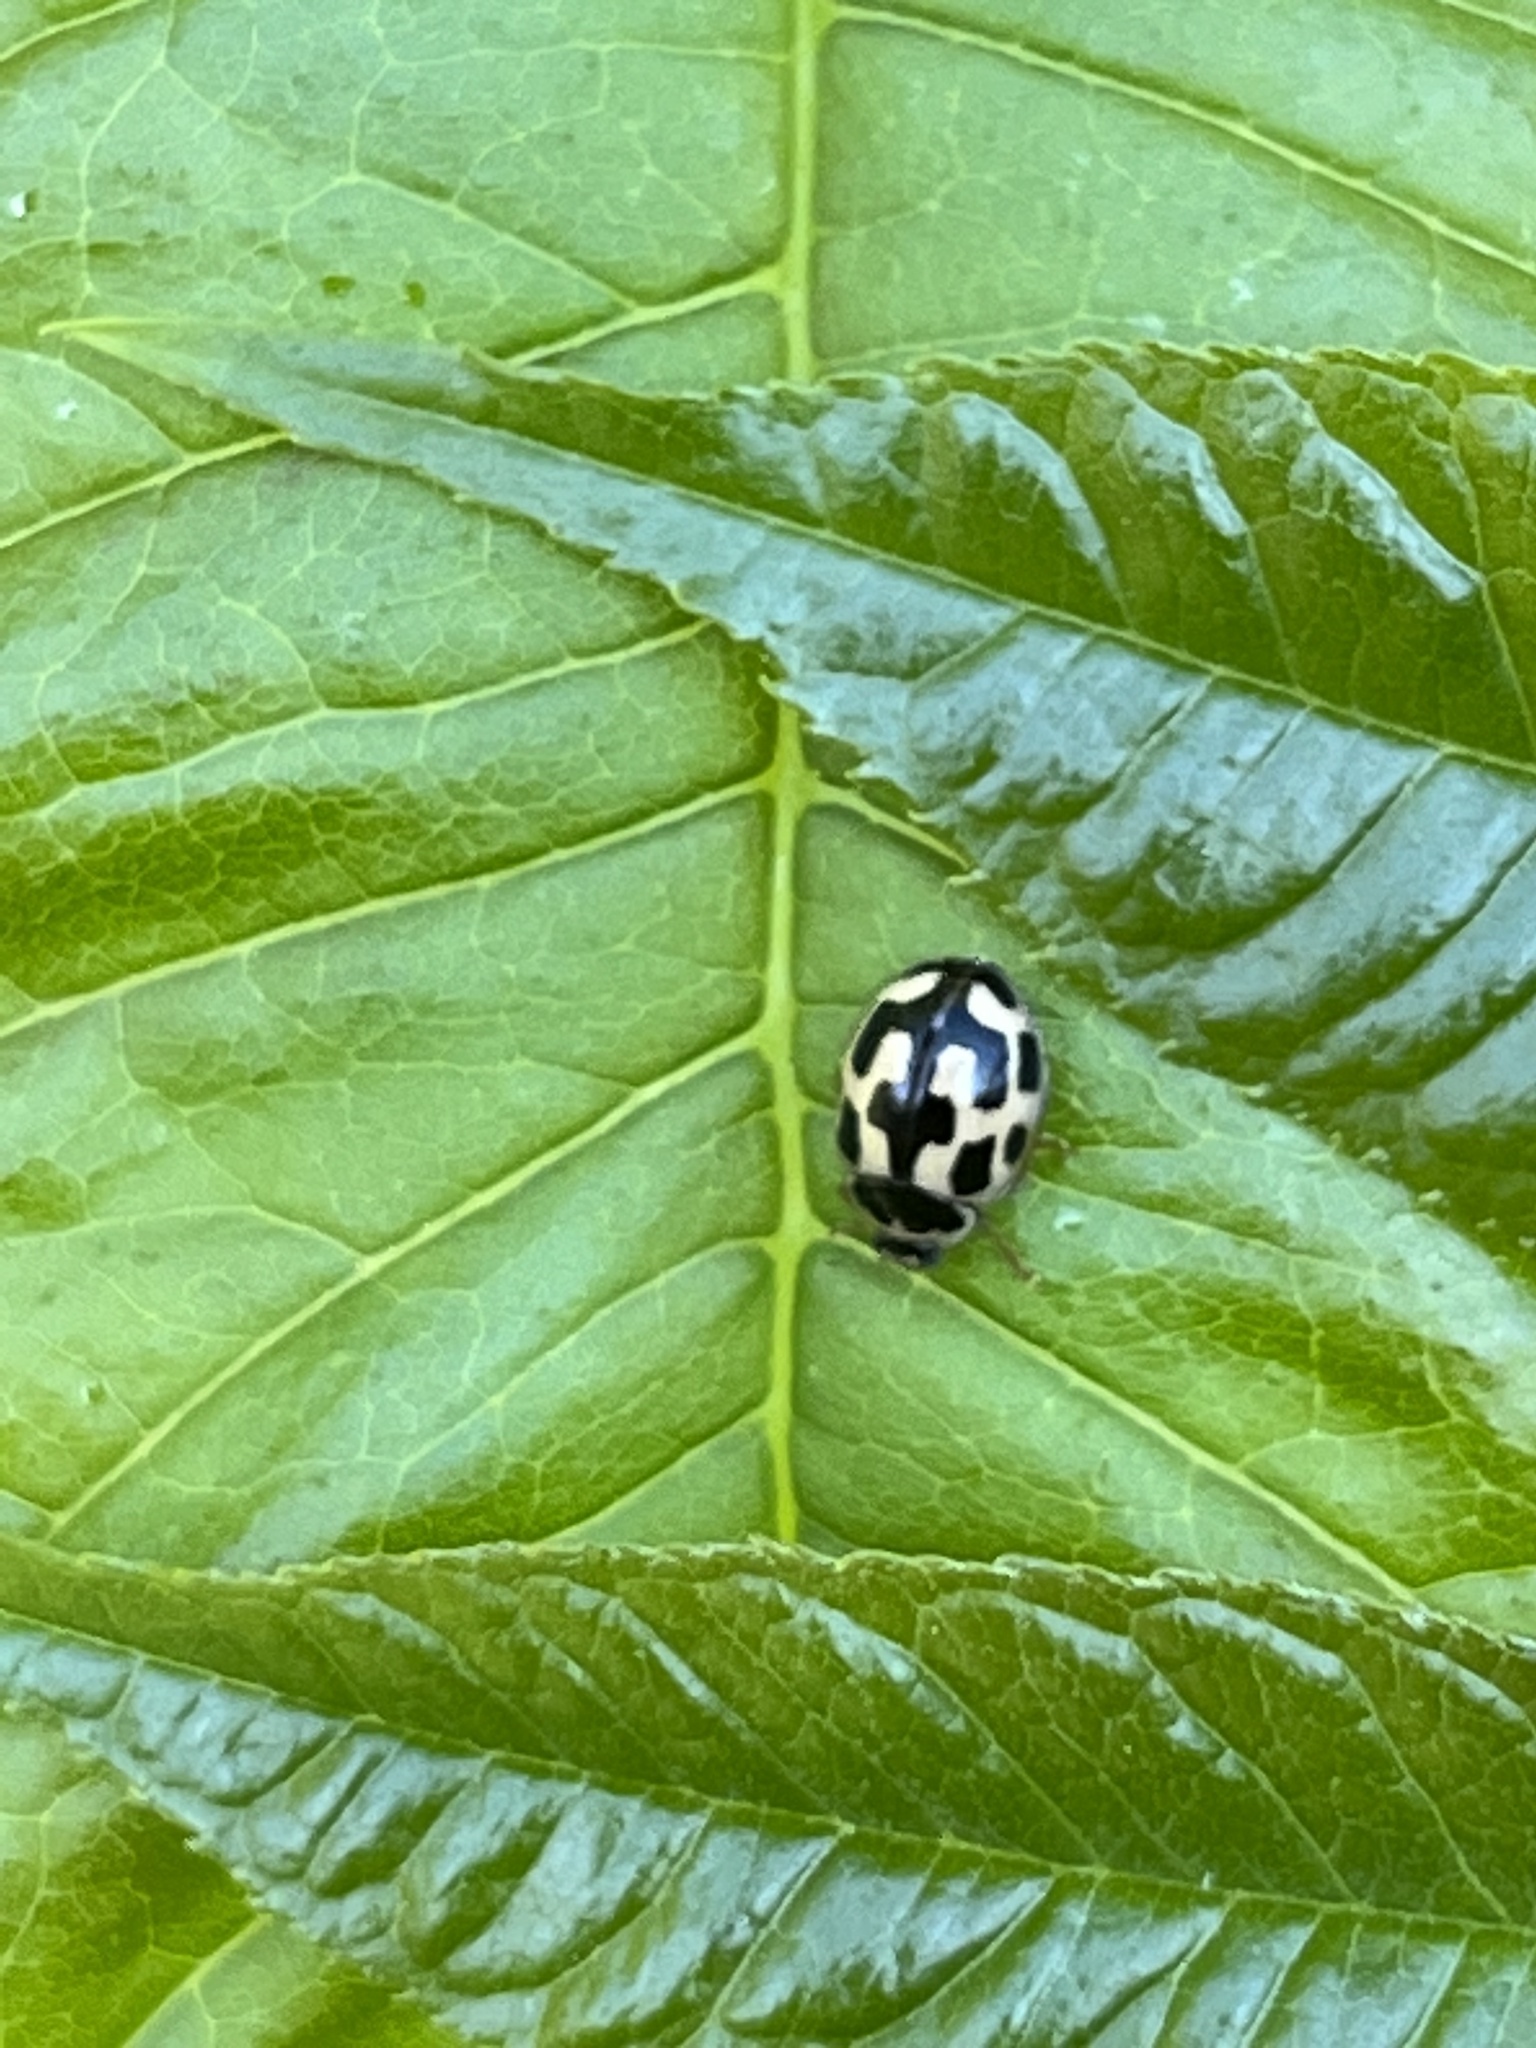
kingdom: Animalia
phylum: Arthropoda
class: Insecta
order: Coleoptera
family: Coccinellidae
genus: Propylaea
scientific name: Propylaea quatuordecimpunctata
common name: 14-spotted ladybird beetle
